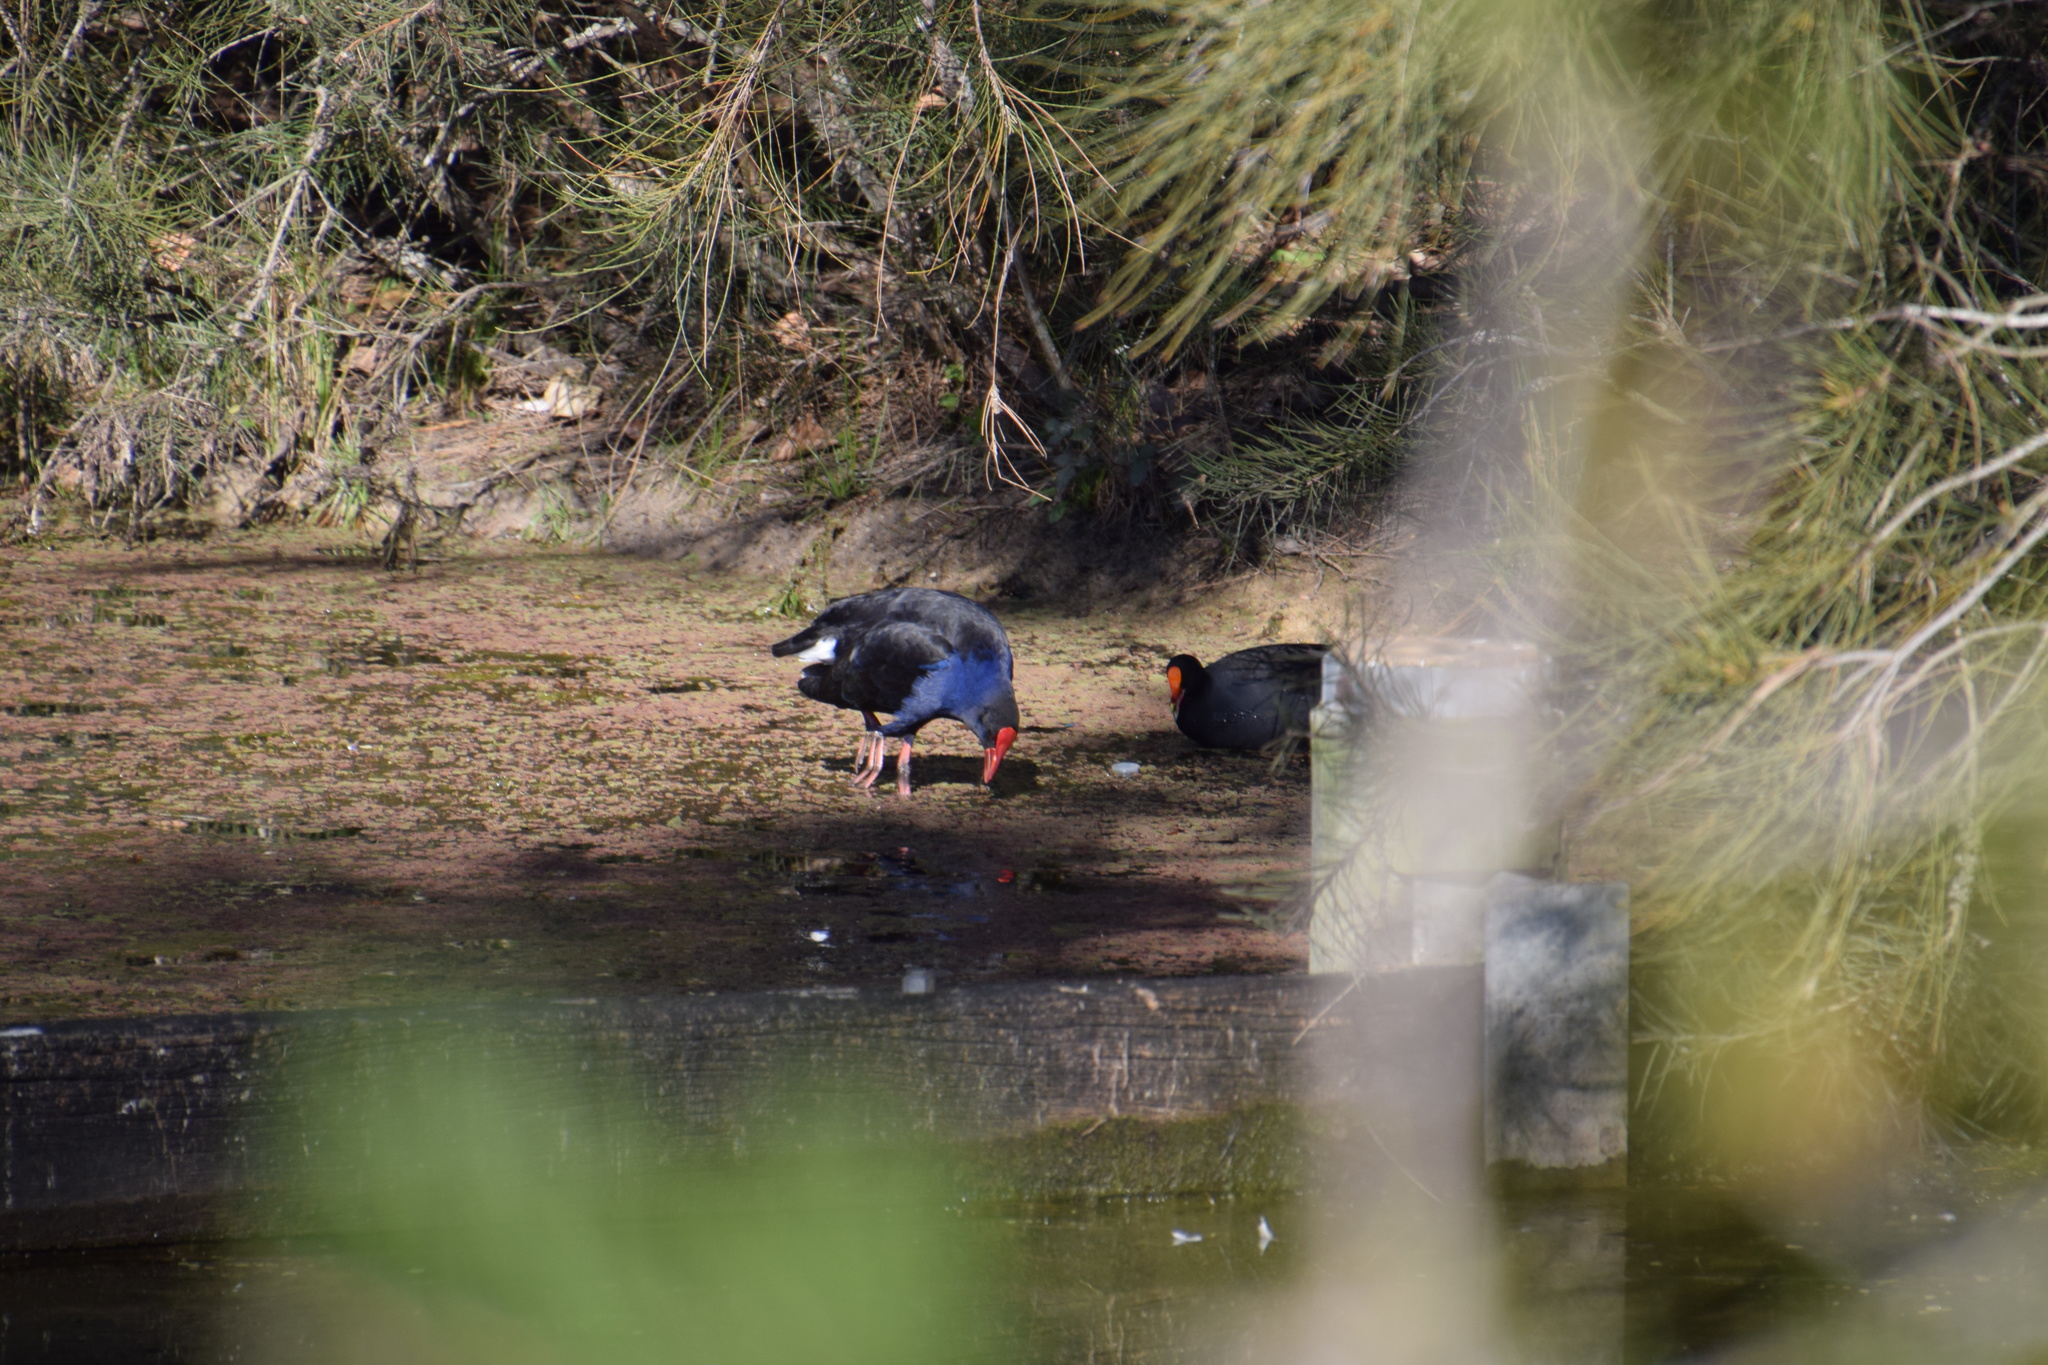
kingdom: Animalia
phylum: Chordata
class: Aves
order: Gruiformes
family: Rallidae
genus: Porphyrio
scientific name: Porphyrio melanotus
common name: Australasian swamphen
